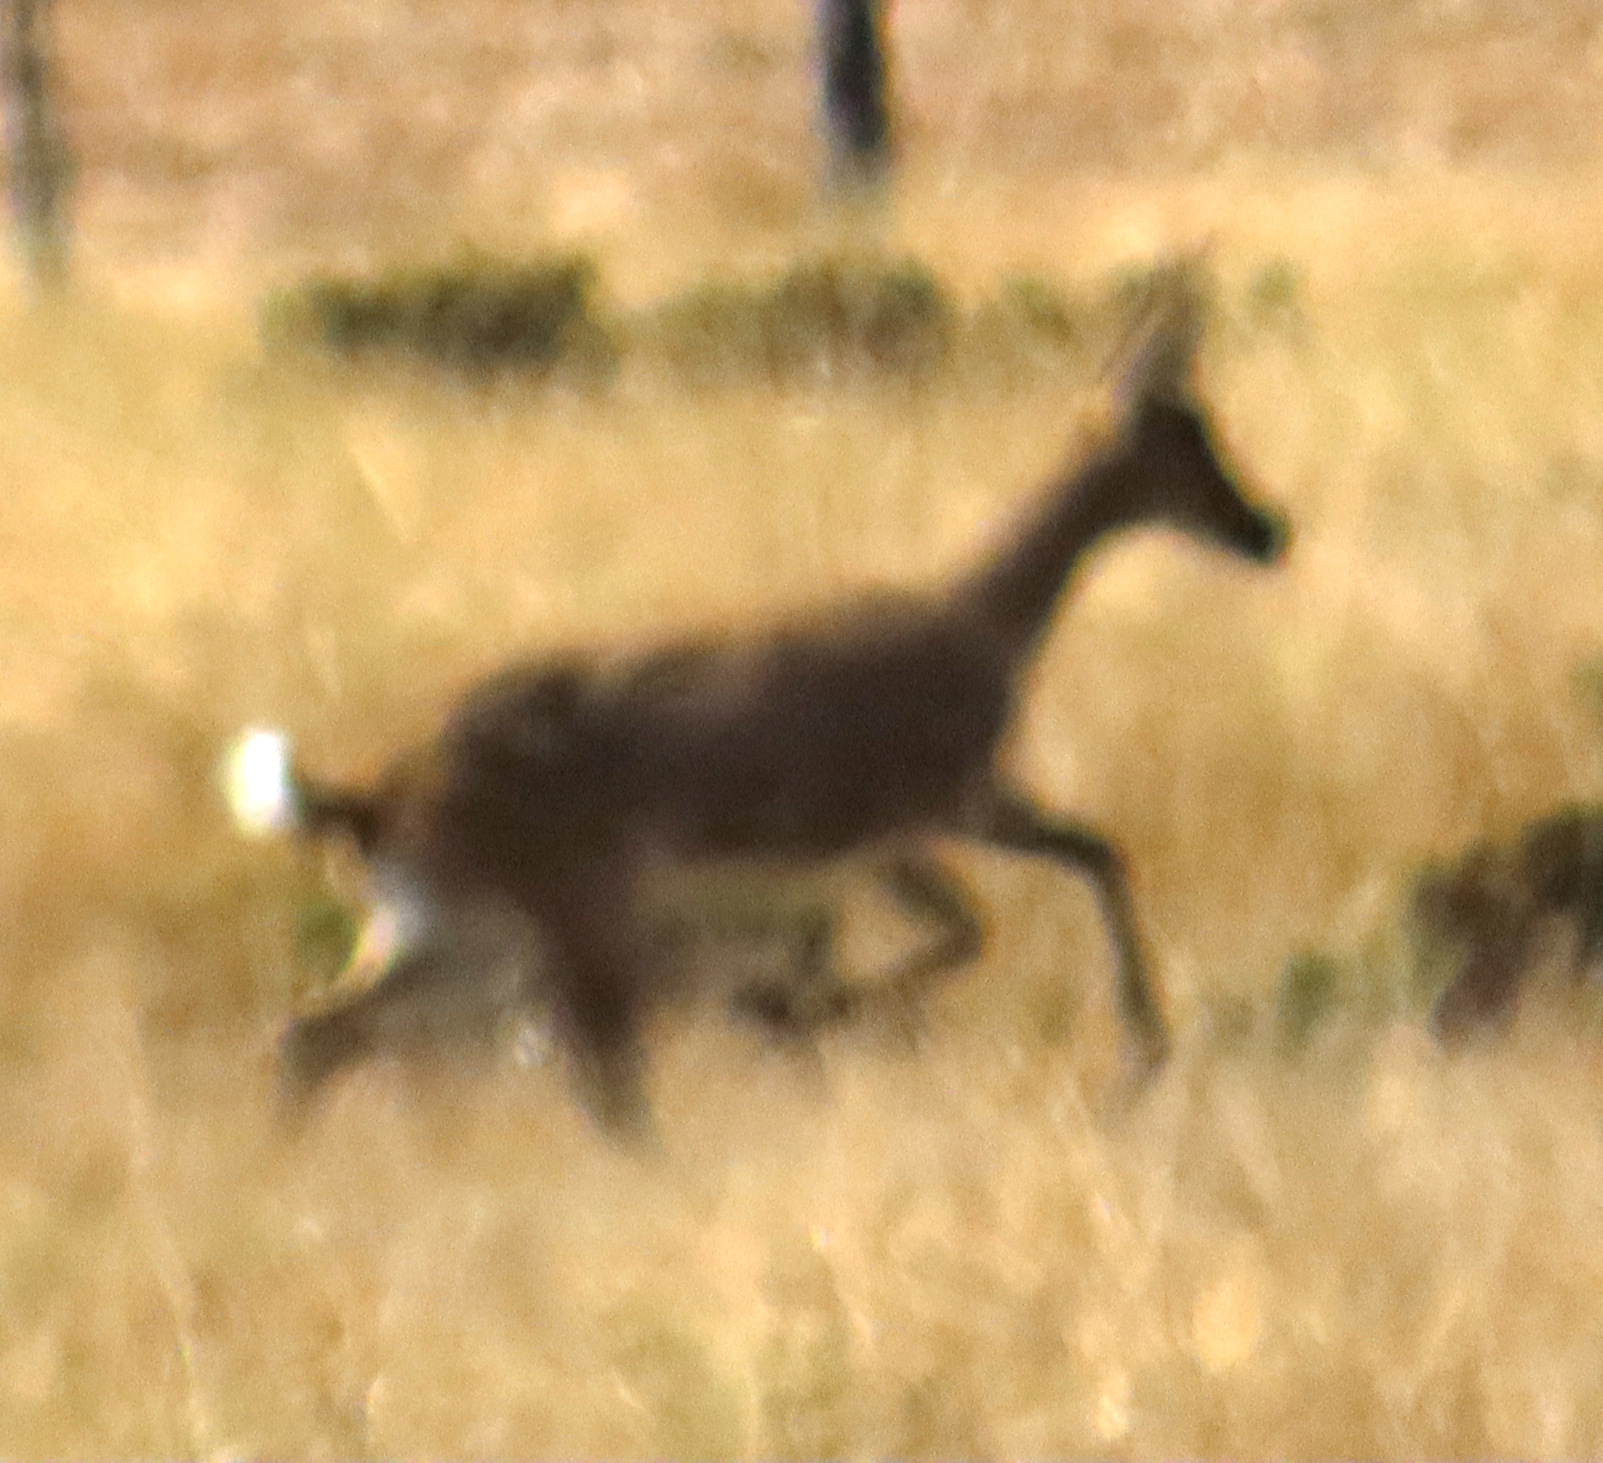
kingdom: Animalia
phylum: Chordata
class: Mammalia
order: Artiodactyla
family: Bovidae
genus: Pelea
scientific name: Pelea capreolus
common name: Common rhebok
